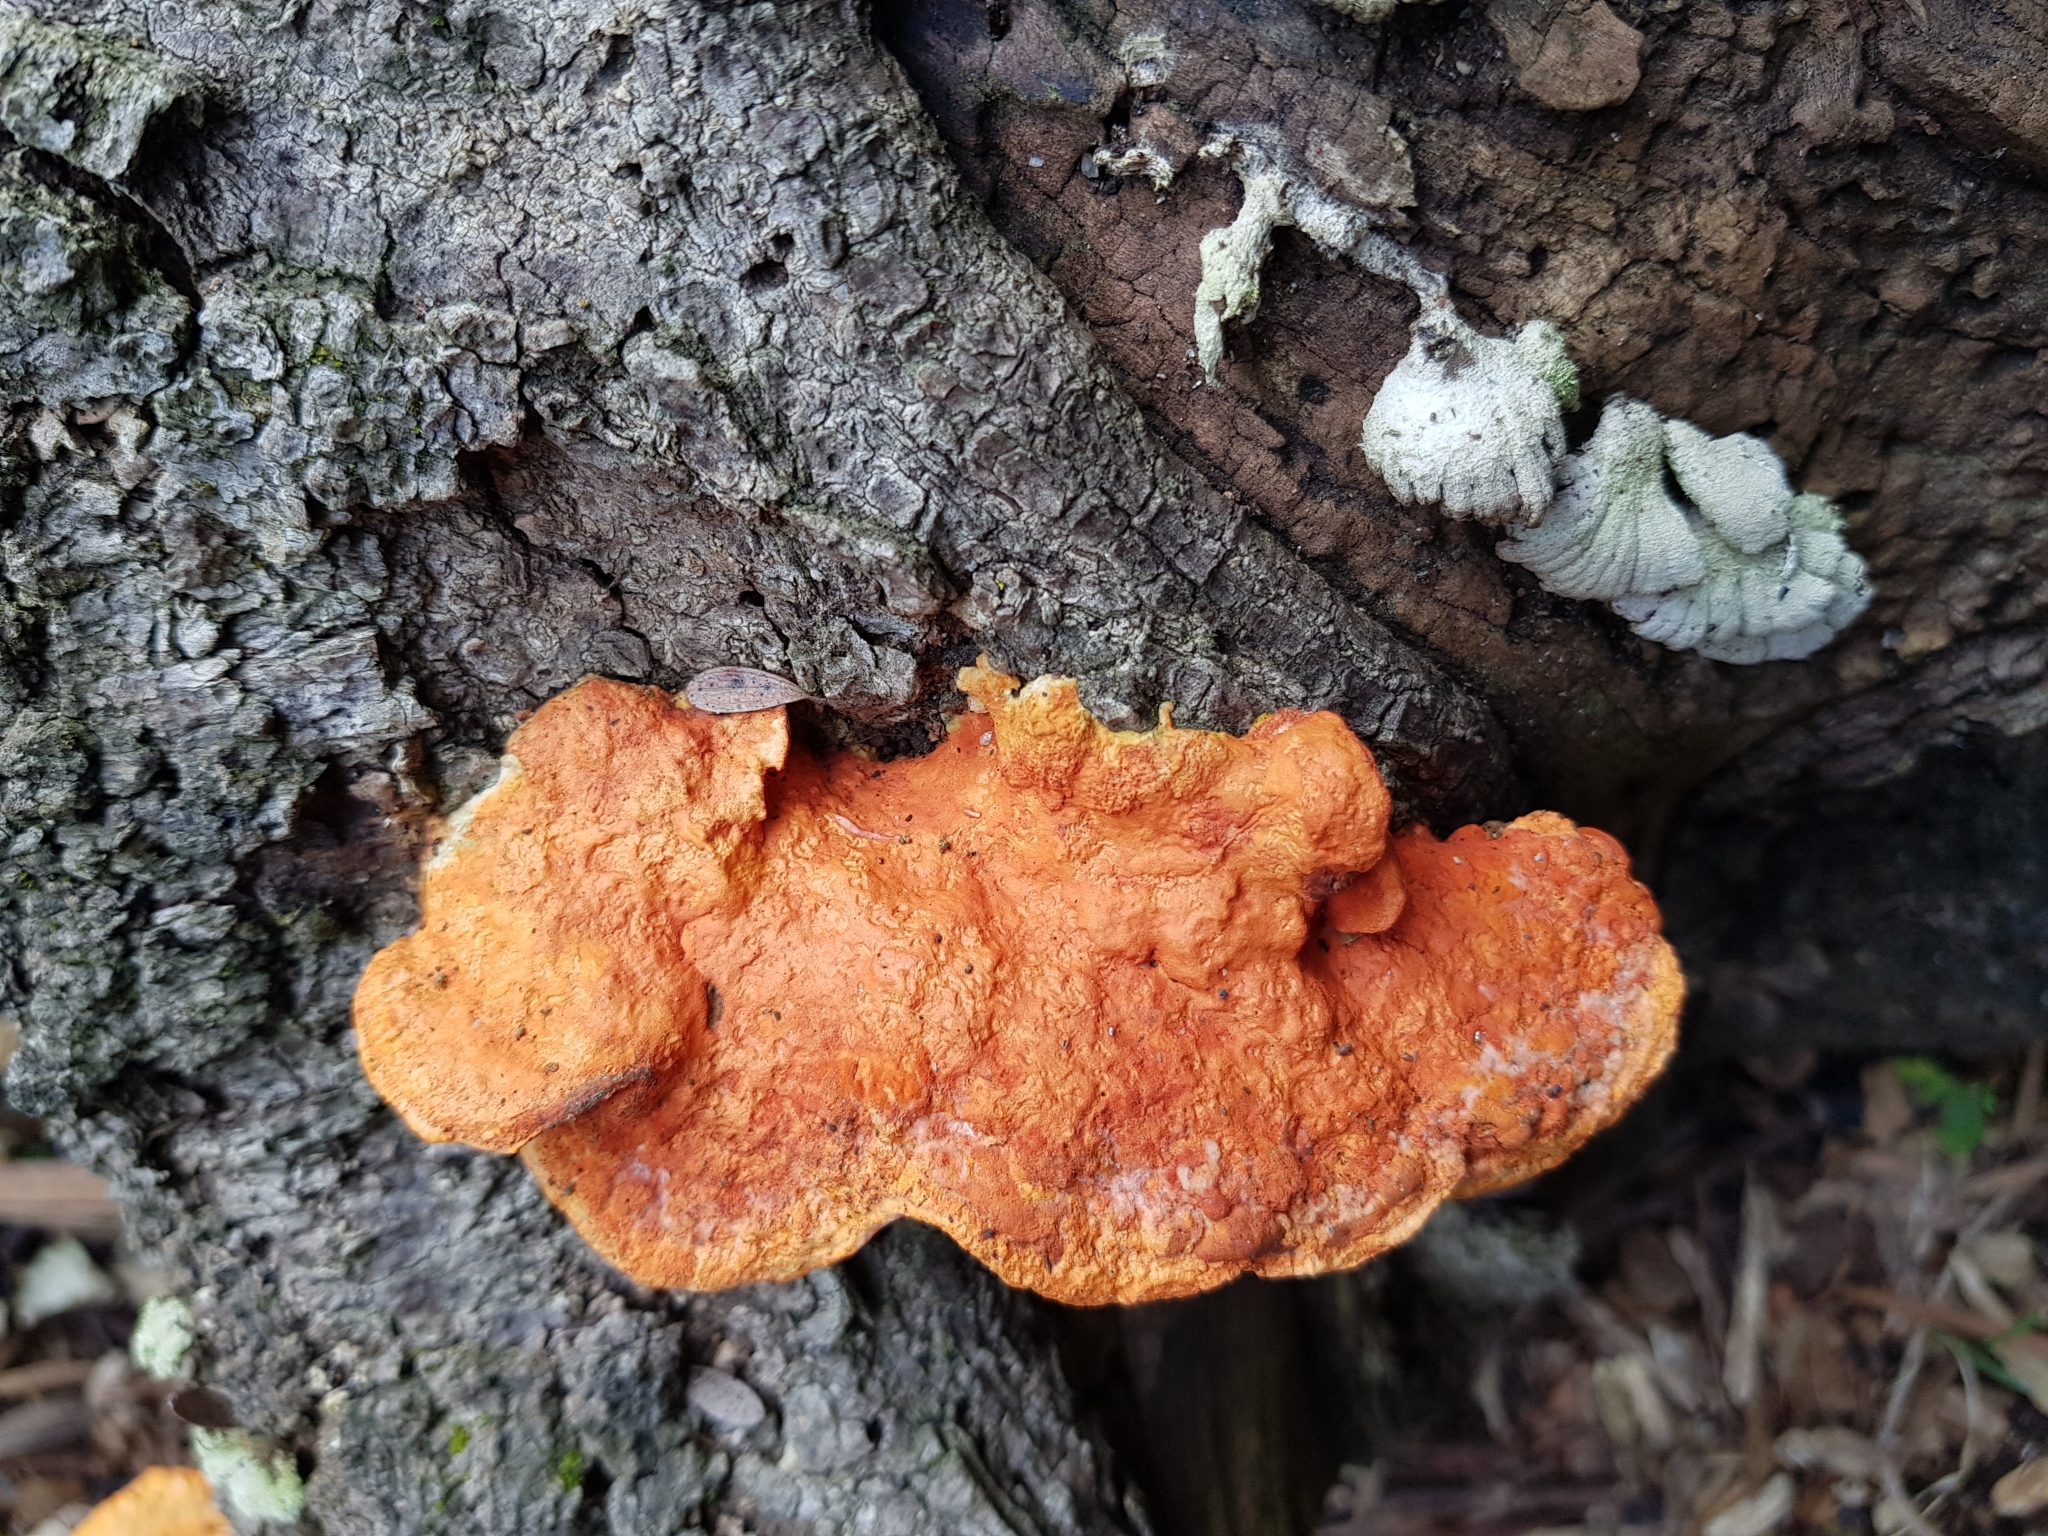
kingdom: Fungi
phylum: Basidiomycota
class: Agaricomycetes
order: Polyporales
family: Polyporaceae
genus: Trametes
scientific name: Trametes coccinea
